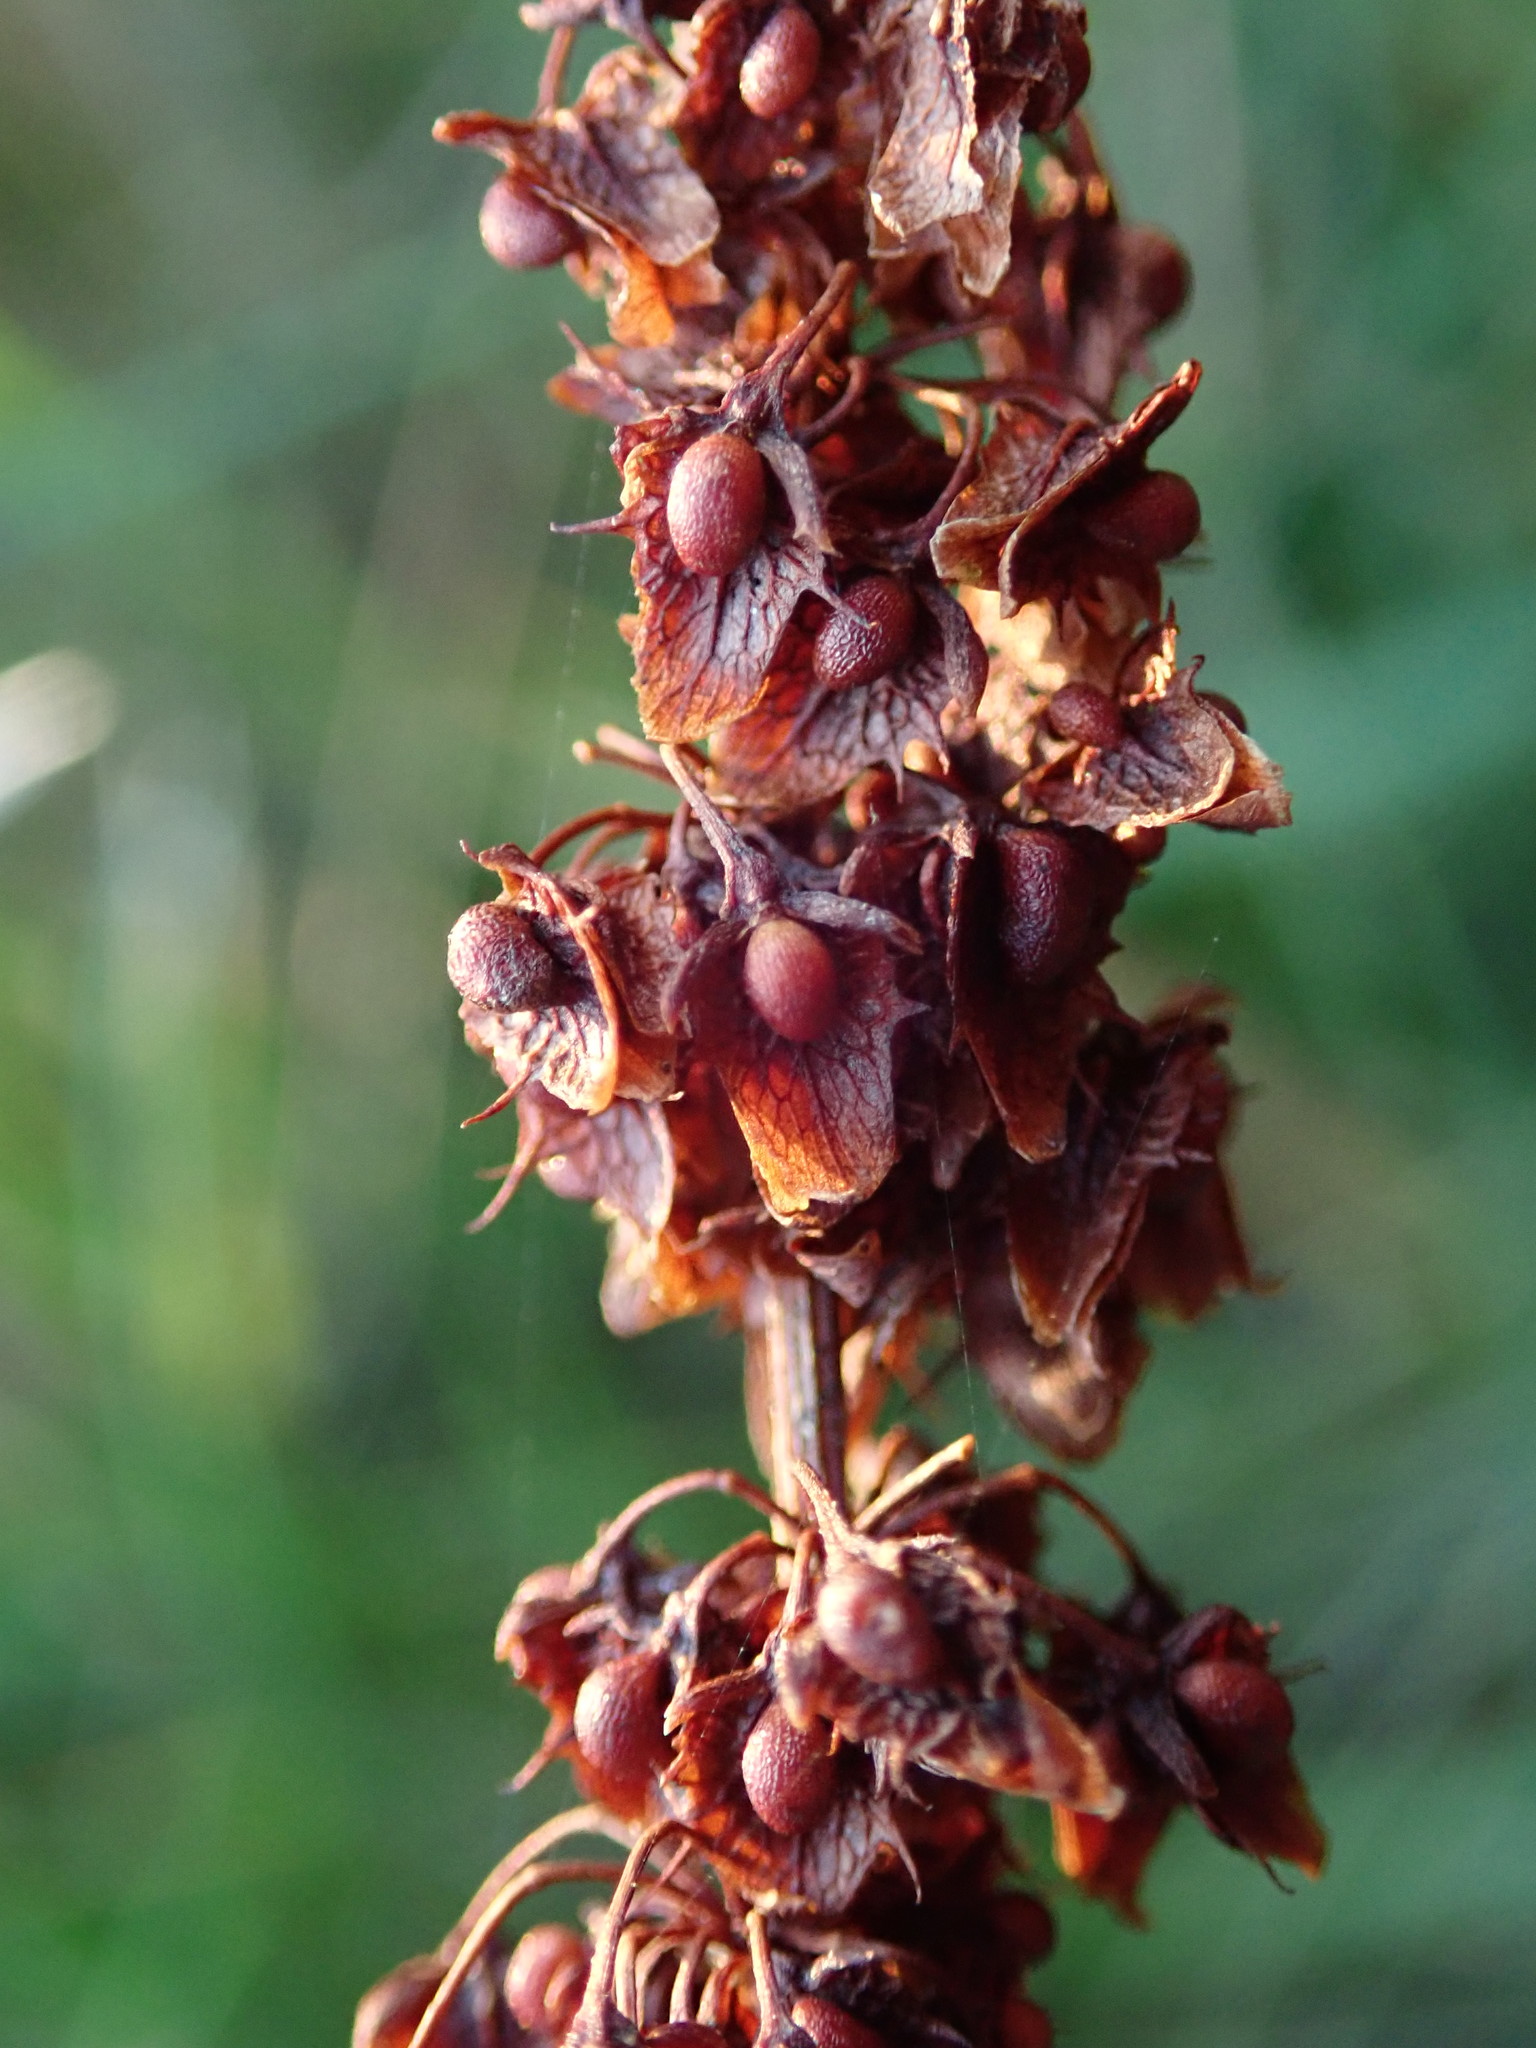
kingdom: Plantae
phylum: Tracheophyta
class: Magnoliopsida
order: Caryophyllales
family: Polygonaceae
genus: Rumex
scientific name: Rumex obtusifolius
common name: Bitter dock
